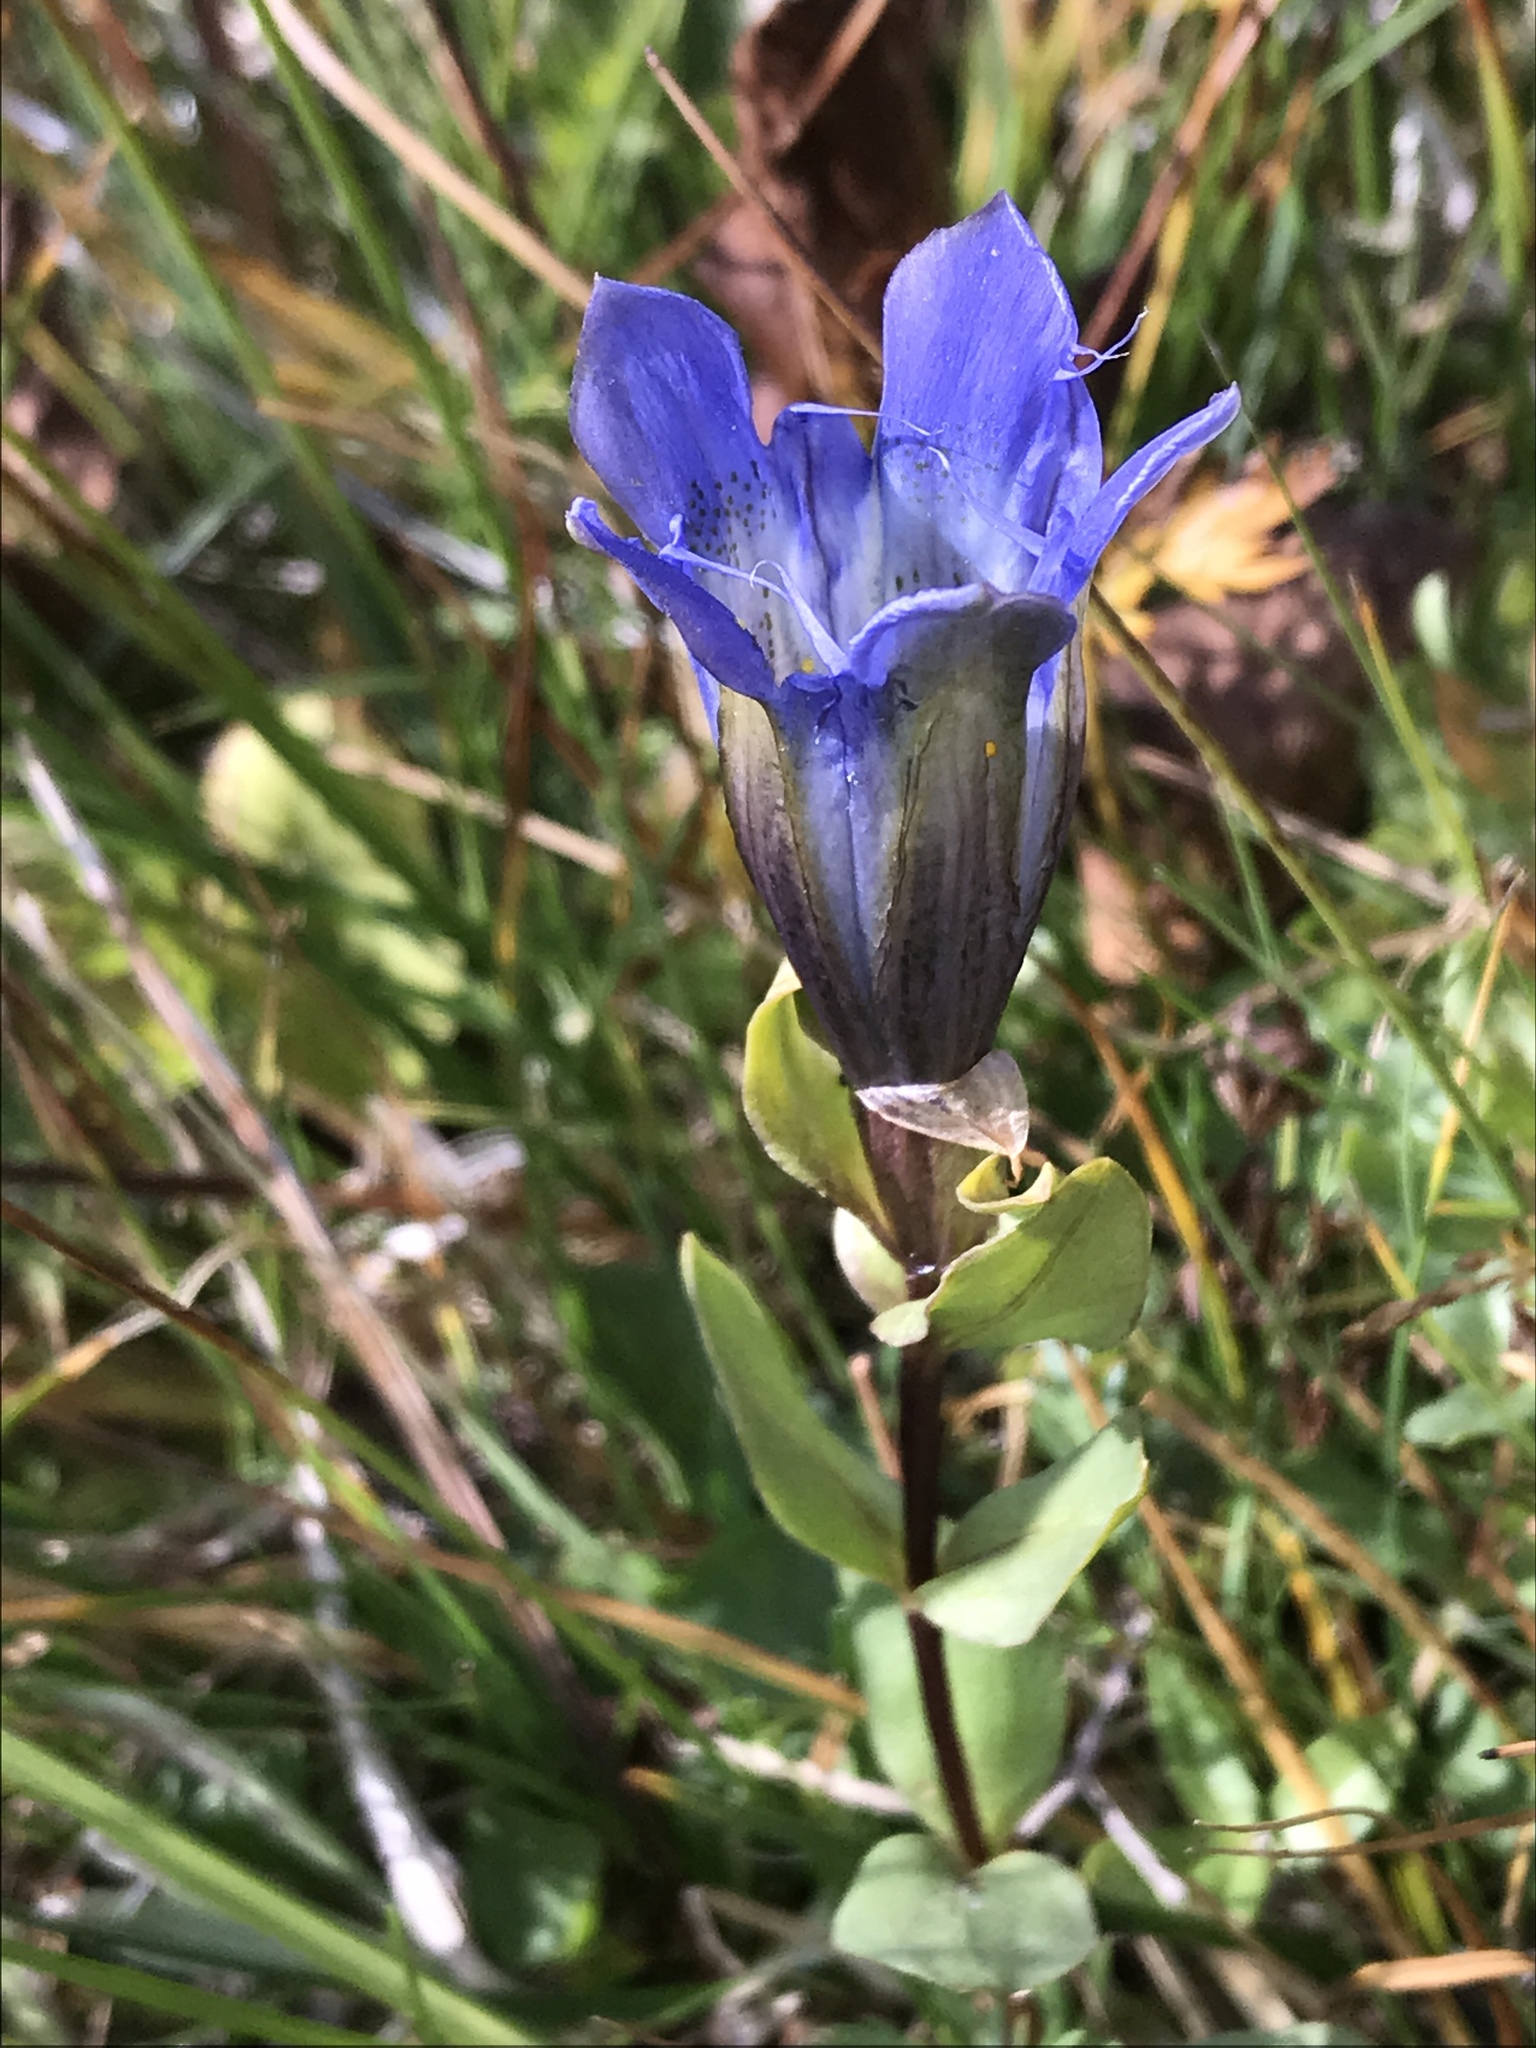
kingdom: Plantae
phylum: Tracheophyta
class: Magnoliopsida
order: Gentianales
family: Gentianaceae
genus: Gentiana
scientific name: Gentiana calycosa
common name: Rainier pleated gentian
